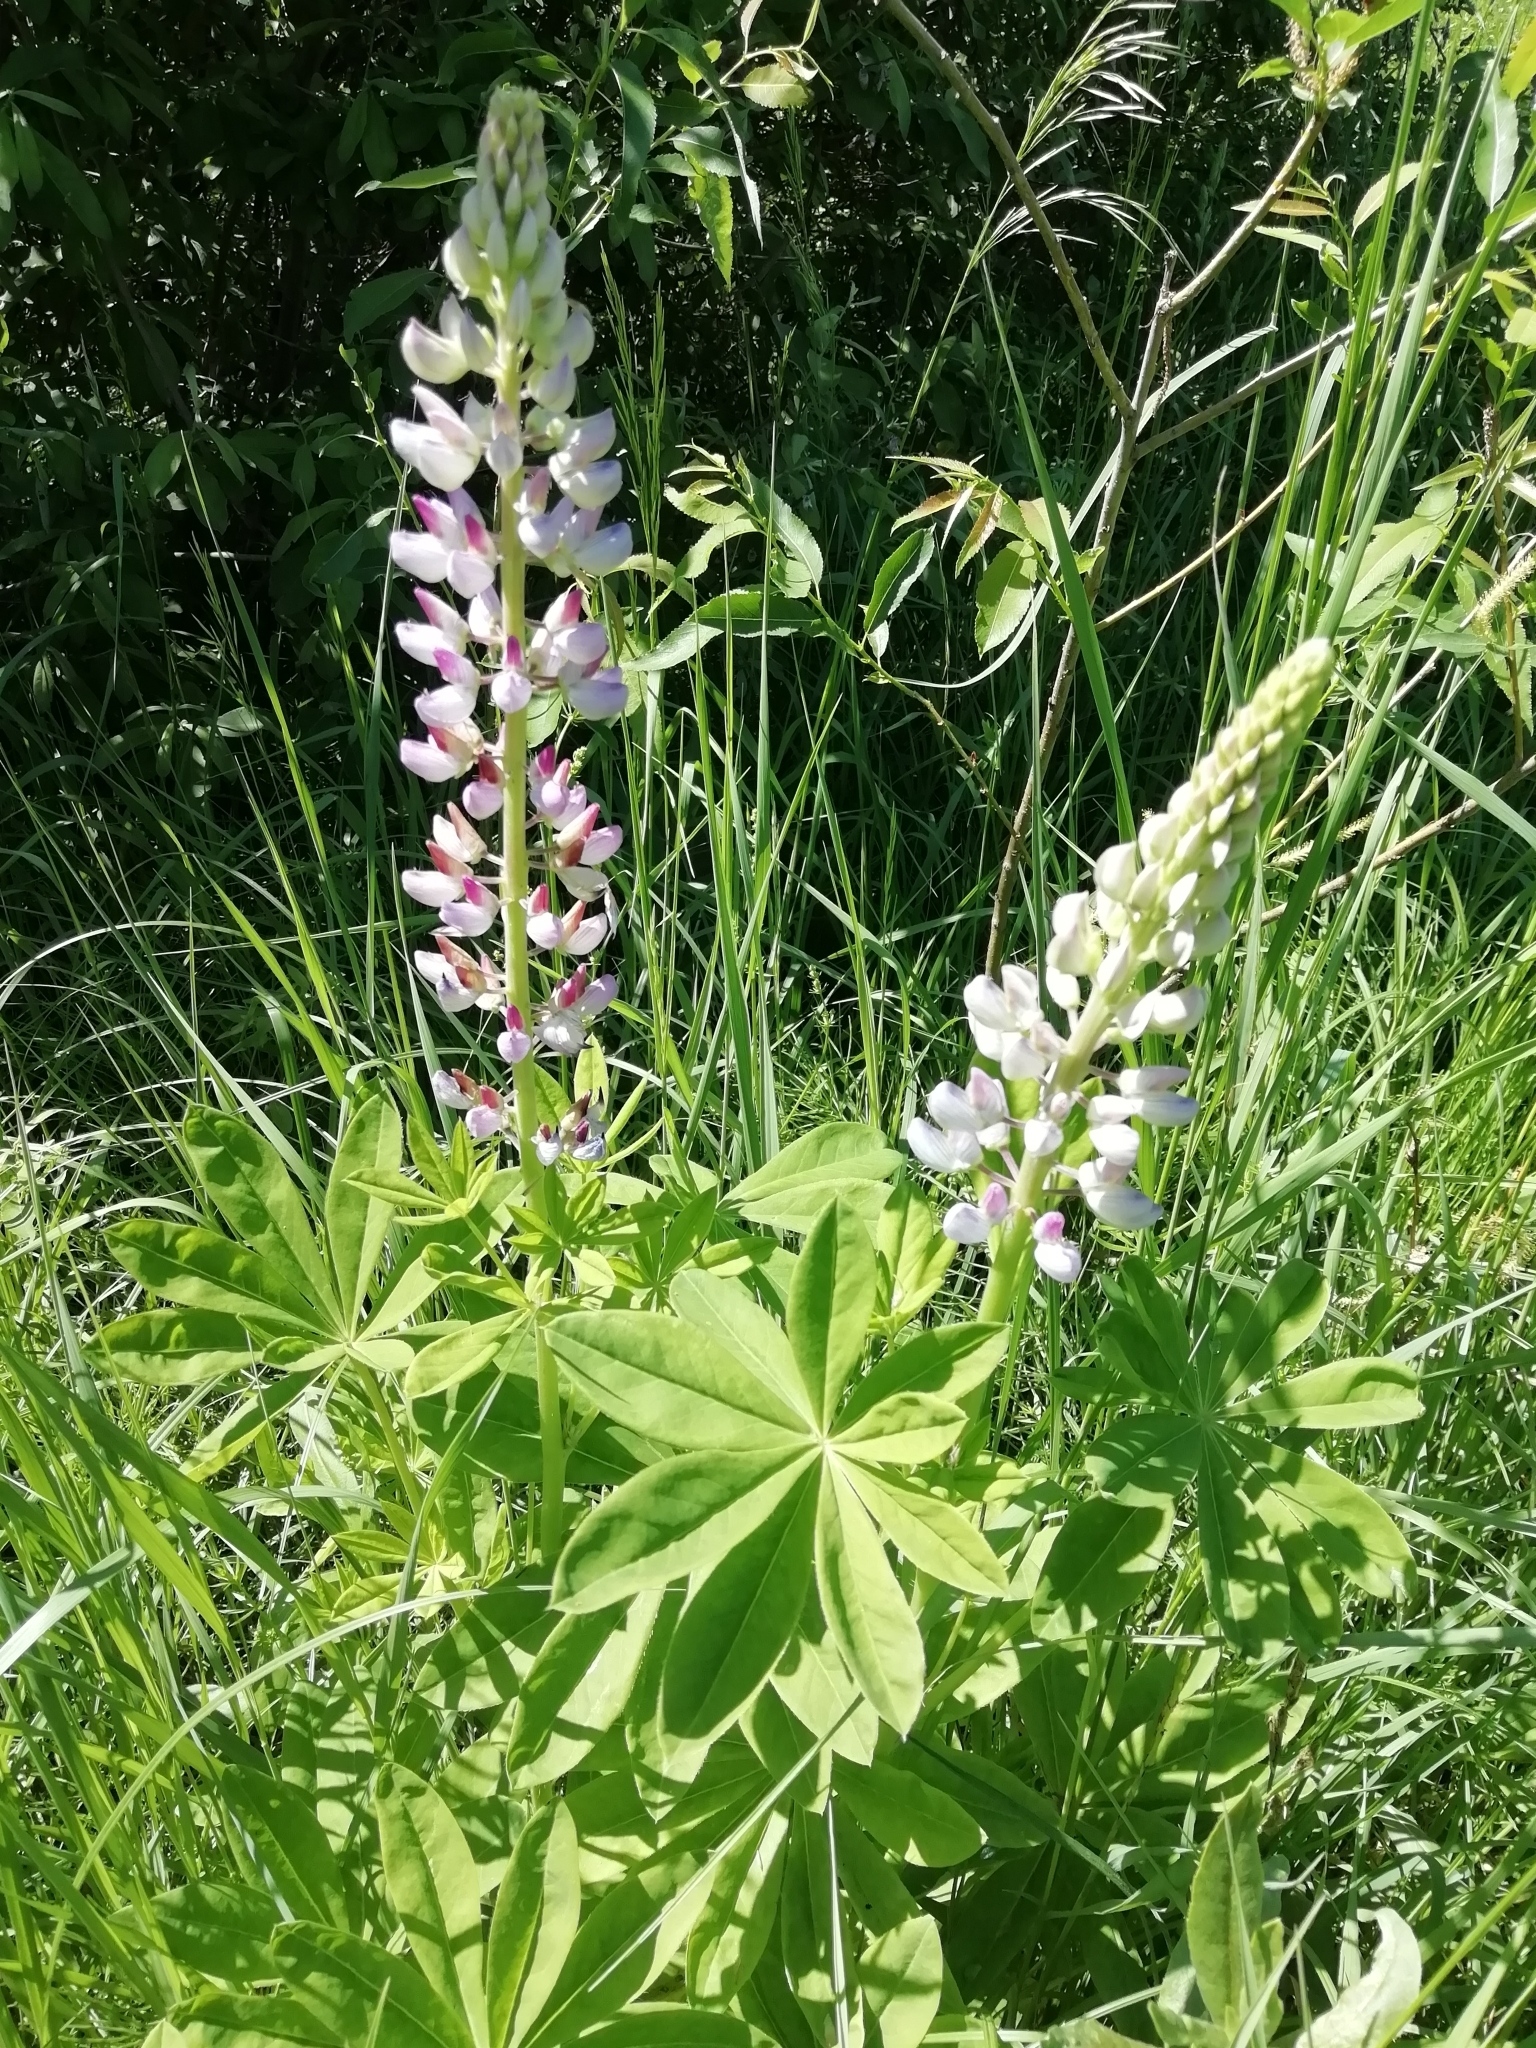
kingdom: Plantae
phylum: Tracheophyta
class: Magnoliopsida
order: Fabales
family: Fabaceae
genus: Lupinus
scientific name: Lupinus polyphyllus
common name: Garden lupin
